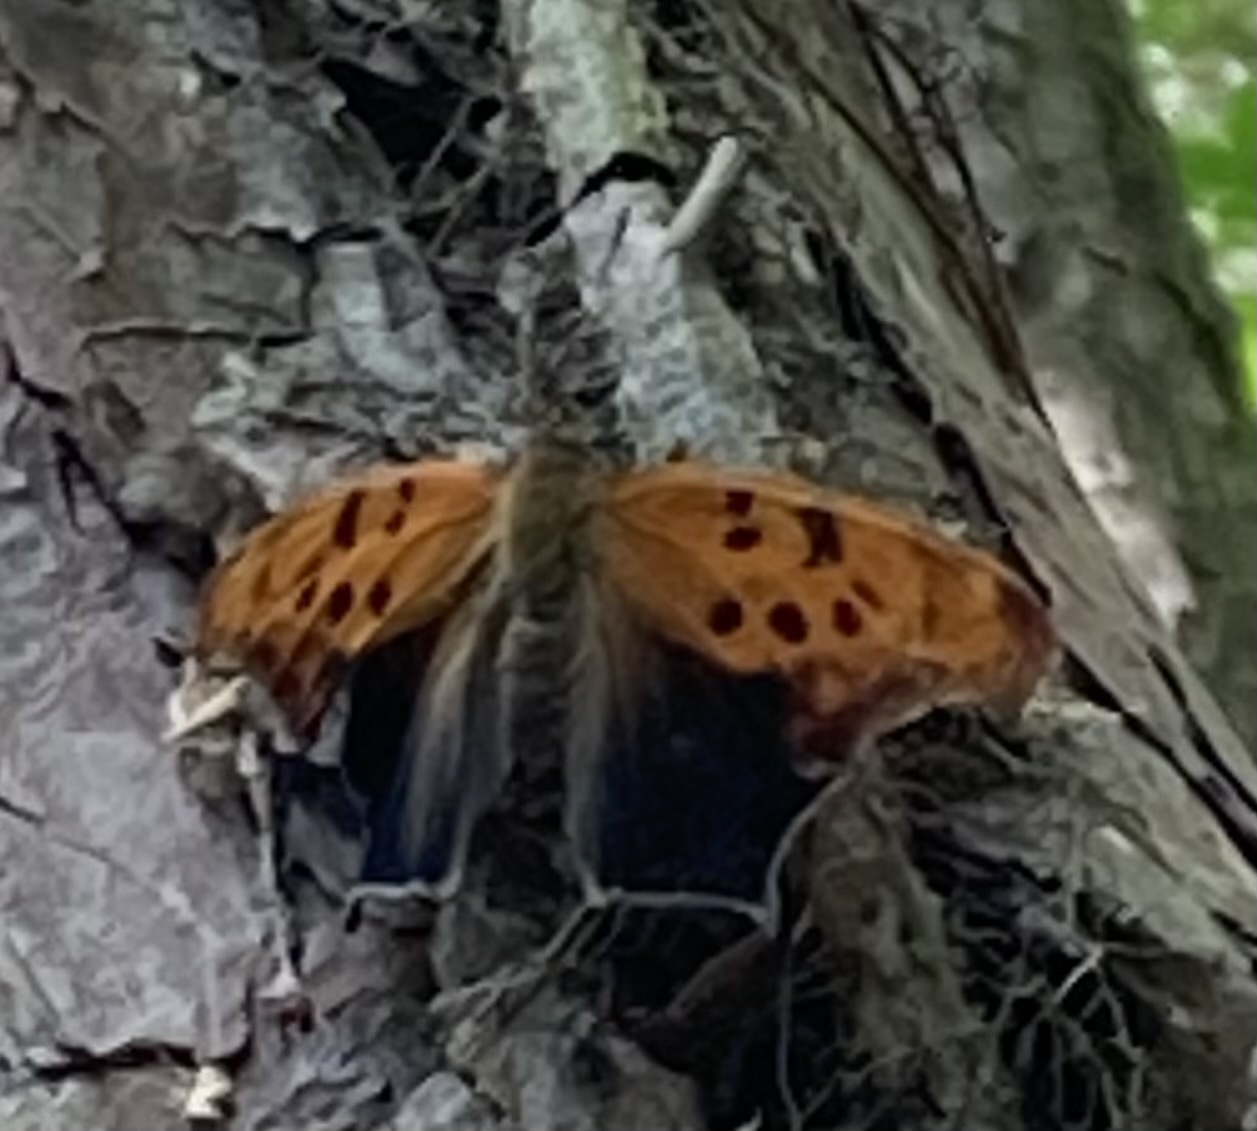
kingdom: Animalia
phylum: Arthropoda
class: Insecta
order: Lepidoptera
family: Nymphalidae
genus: Polygonia
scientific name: Polygonia interrogationis
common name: Question mark
